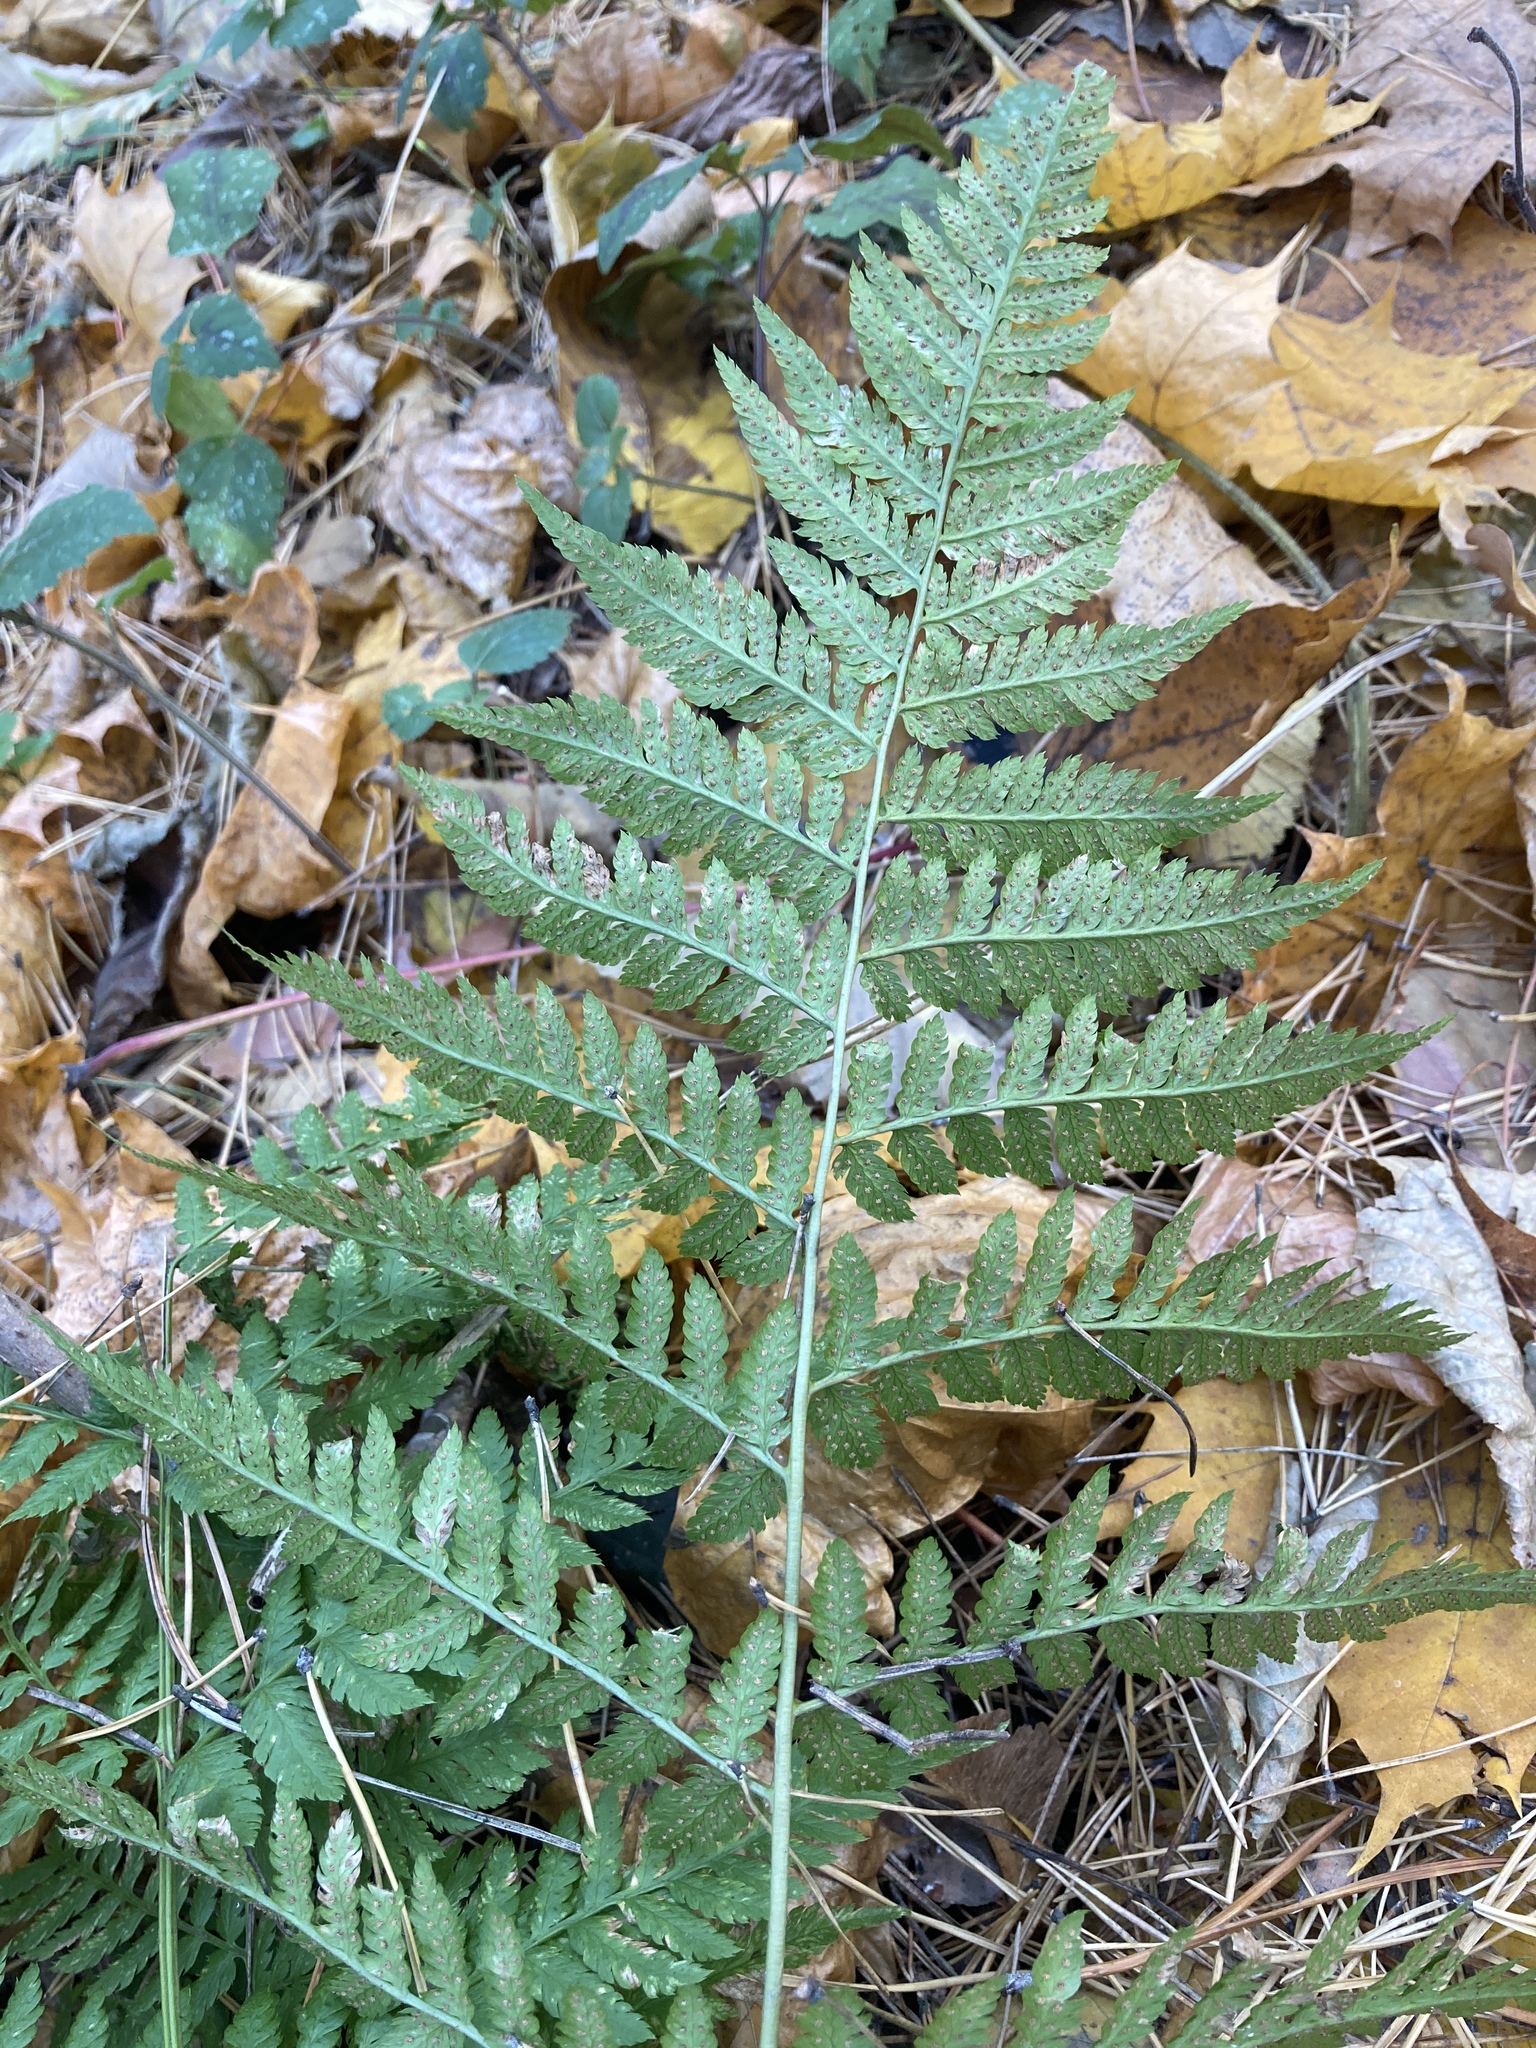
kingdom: Plantae
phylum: Tracheophyta
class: Polypodiopsida
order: Polypodiales
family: Dryopteridaceae
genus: Dryopteris
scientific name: Dryopteris carthusiana
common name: Narrow buckler-fern
